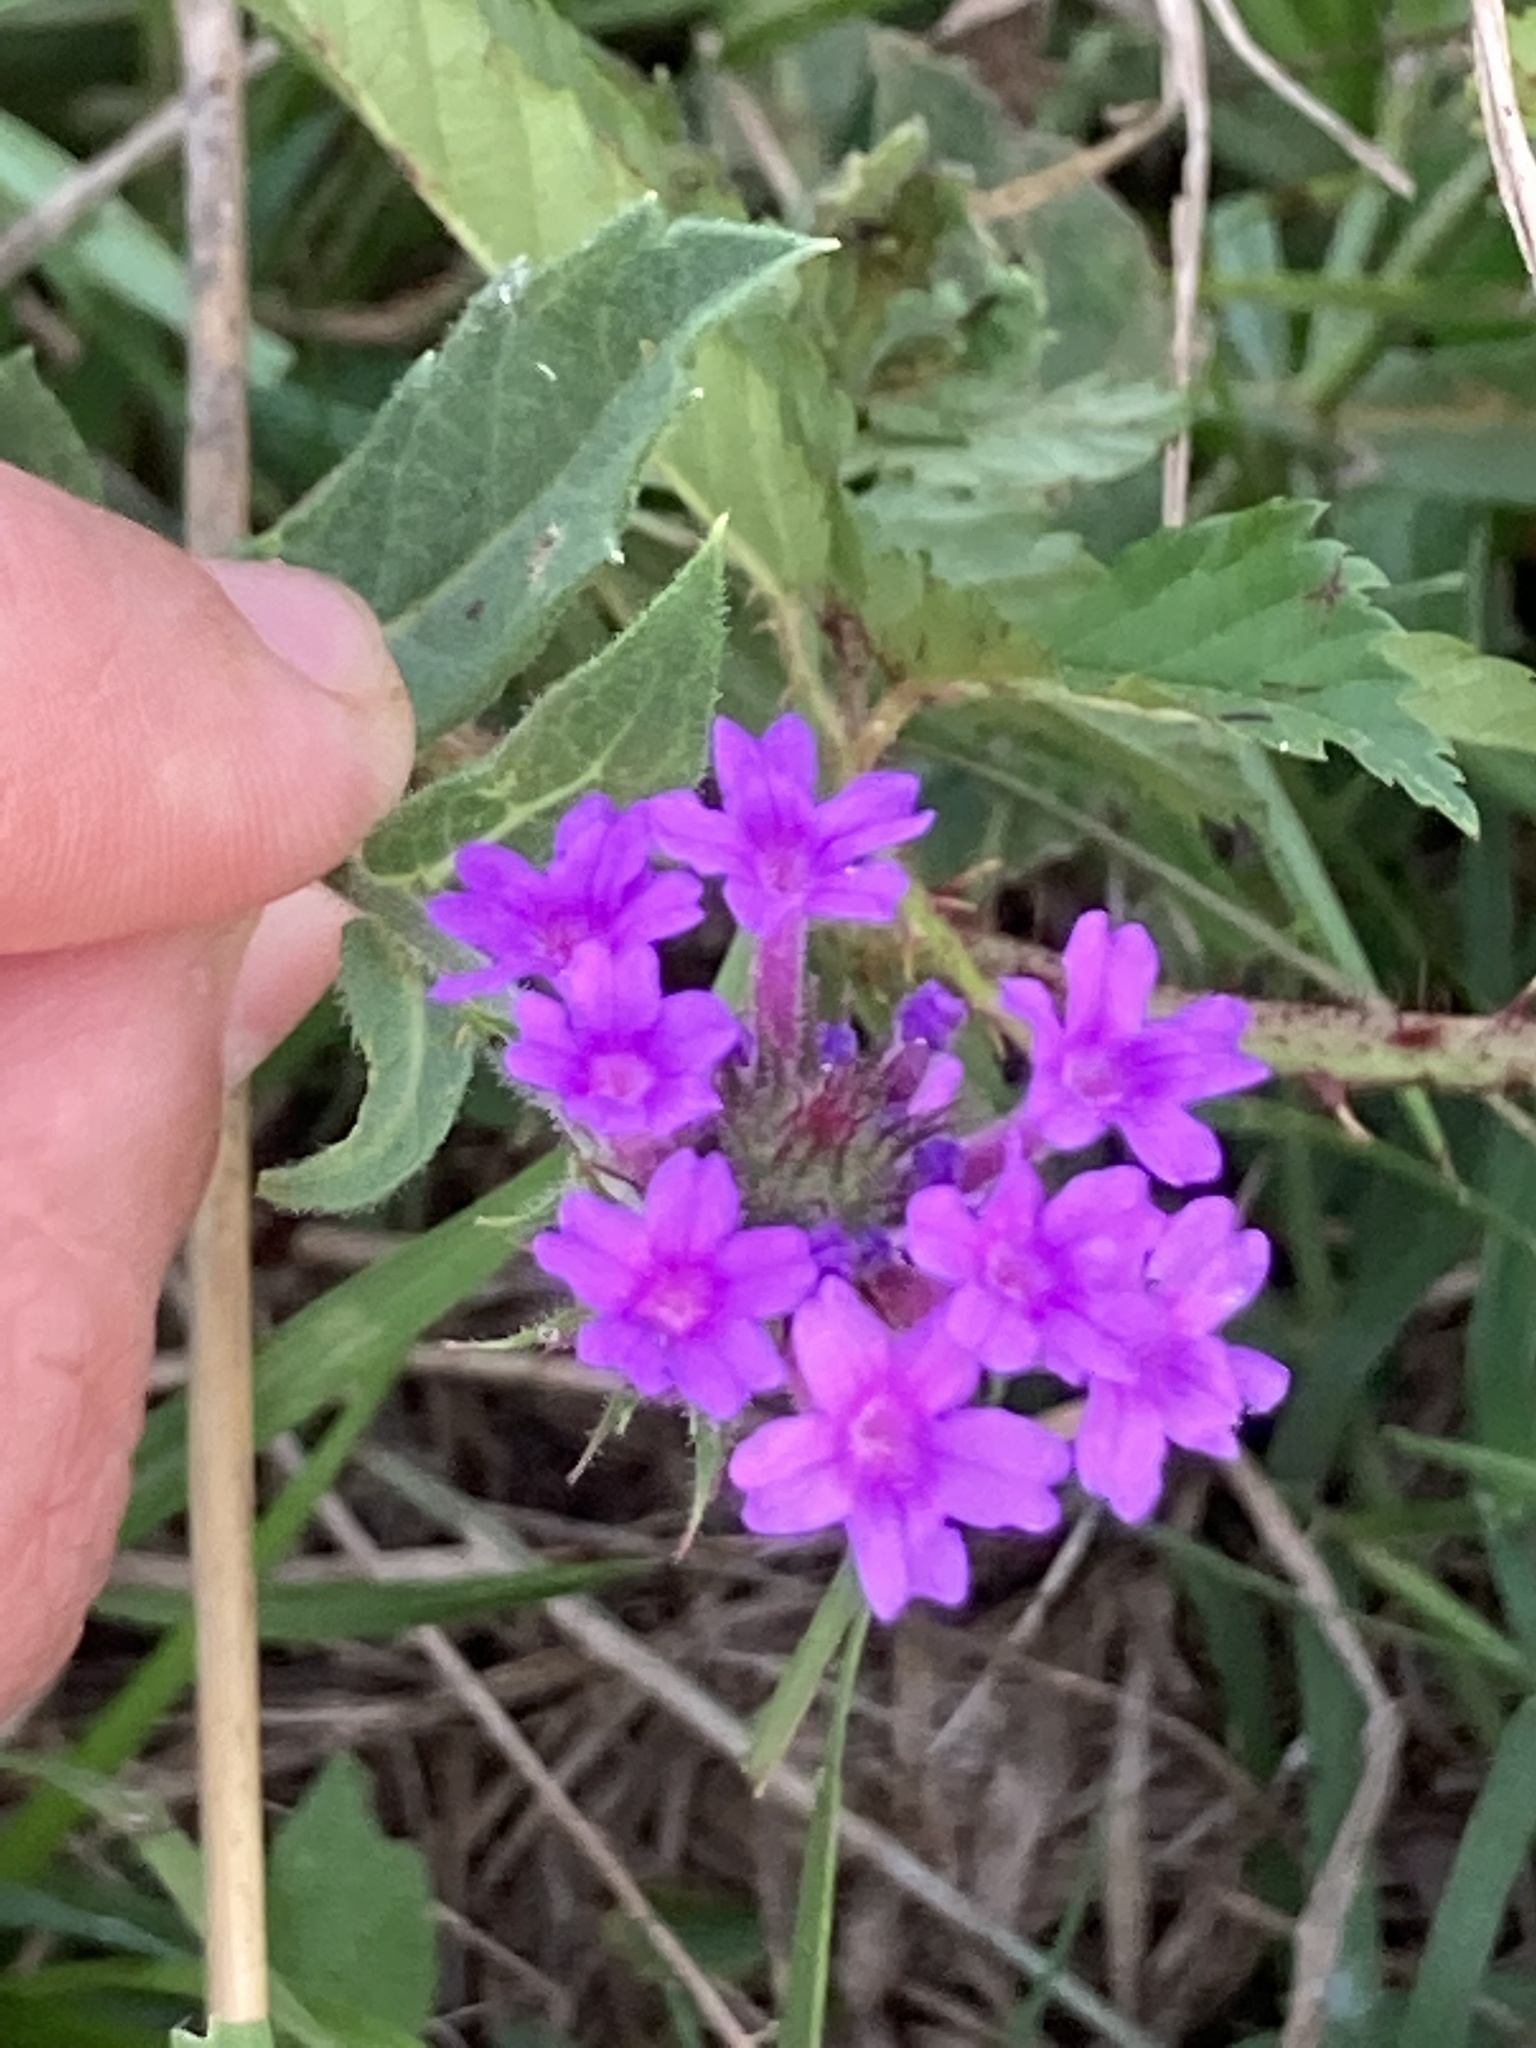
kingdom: Plantae
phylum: Tracheophyta
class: Magnoliopsida
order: Lamiales
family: Verbenaceae
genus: Verbena
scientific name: Verbena rigida
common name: Slender vervain
